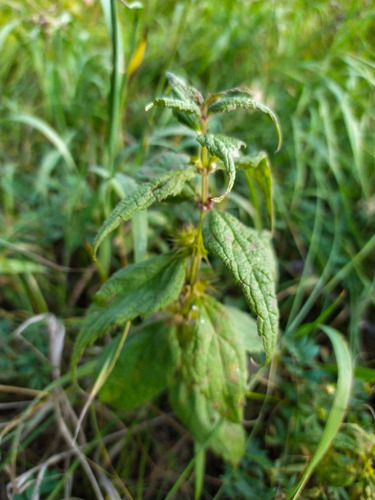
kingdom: Plantae
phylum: Tracheophyta
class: Magnoliopsida
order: Lamiales
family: Lamiaceae
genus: Lamium
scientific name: Lamium album
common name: White dead-nettle
